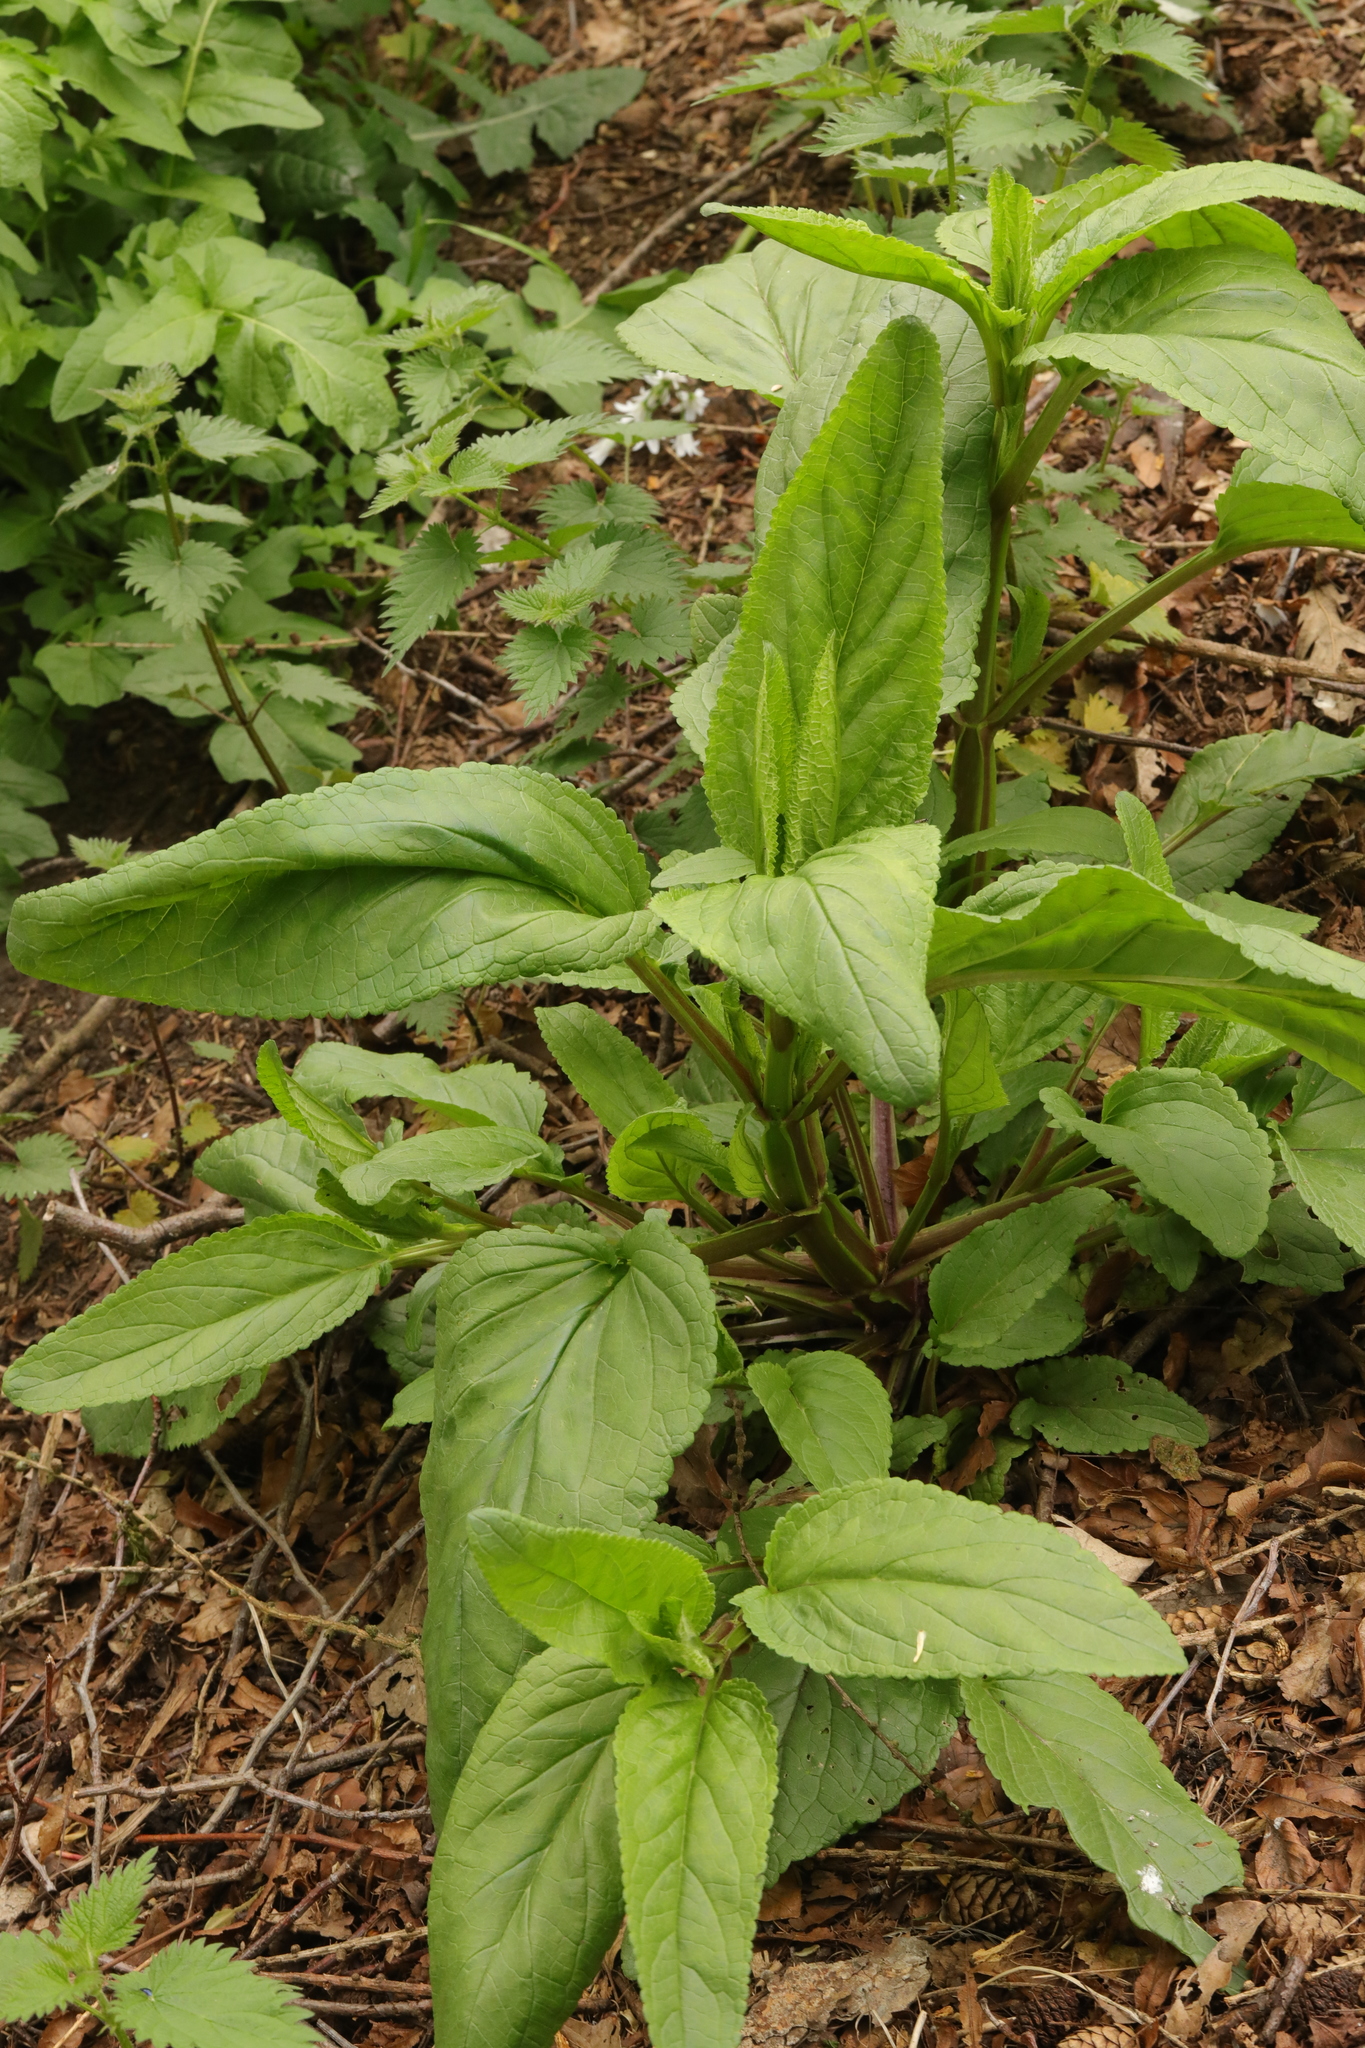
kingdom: Plantae
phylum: Tracheophyta
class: Magnoliopsida
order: Lamiales
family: Scrophulariaceae
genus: Scrophularia
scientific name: Scrophularia auriculata
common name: Water betony
